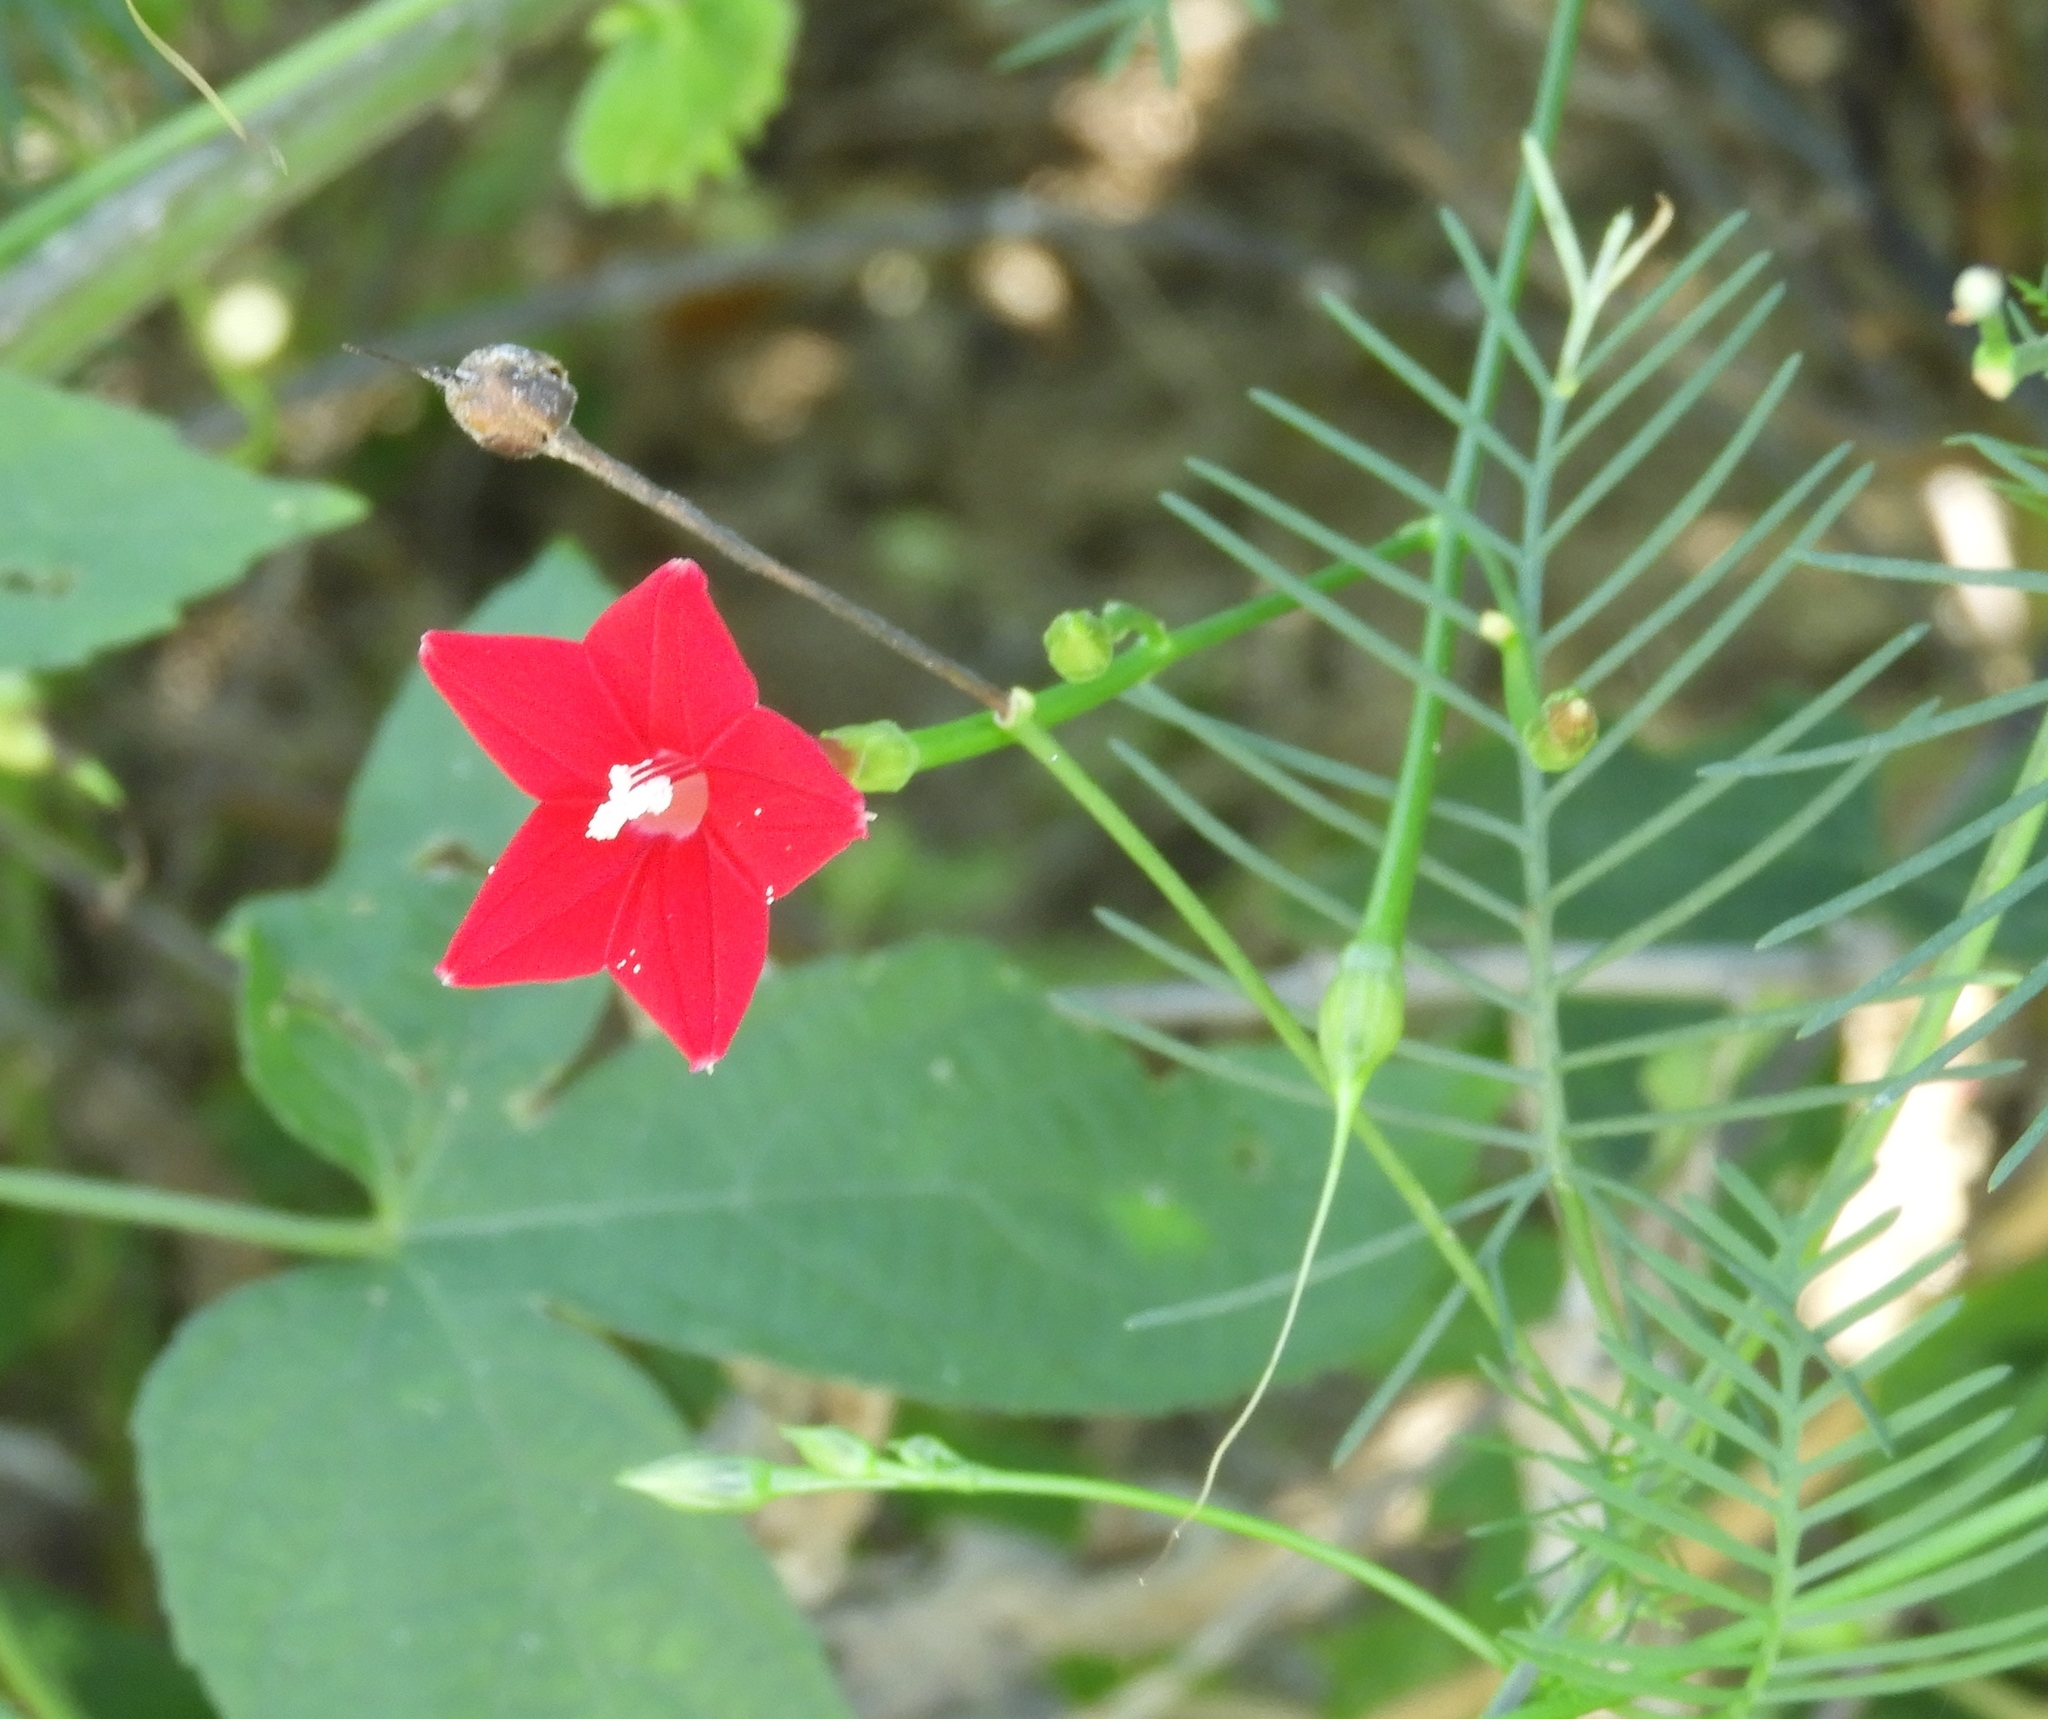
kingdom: Plantae
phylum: Tracheophyta
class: Magnoliopsida
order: Solanales
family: Convolvulaceae
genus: Ipomoea
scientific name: Ipomoea quamoclit
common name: Cypress vine
